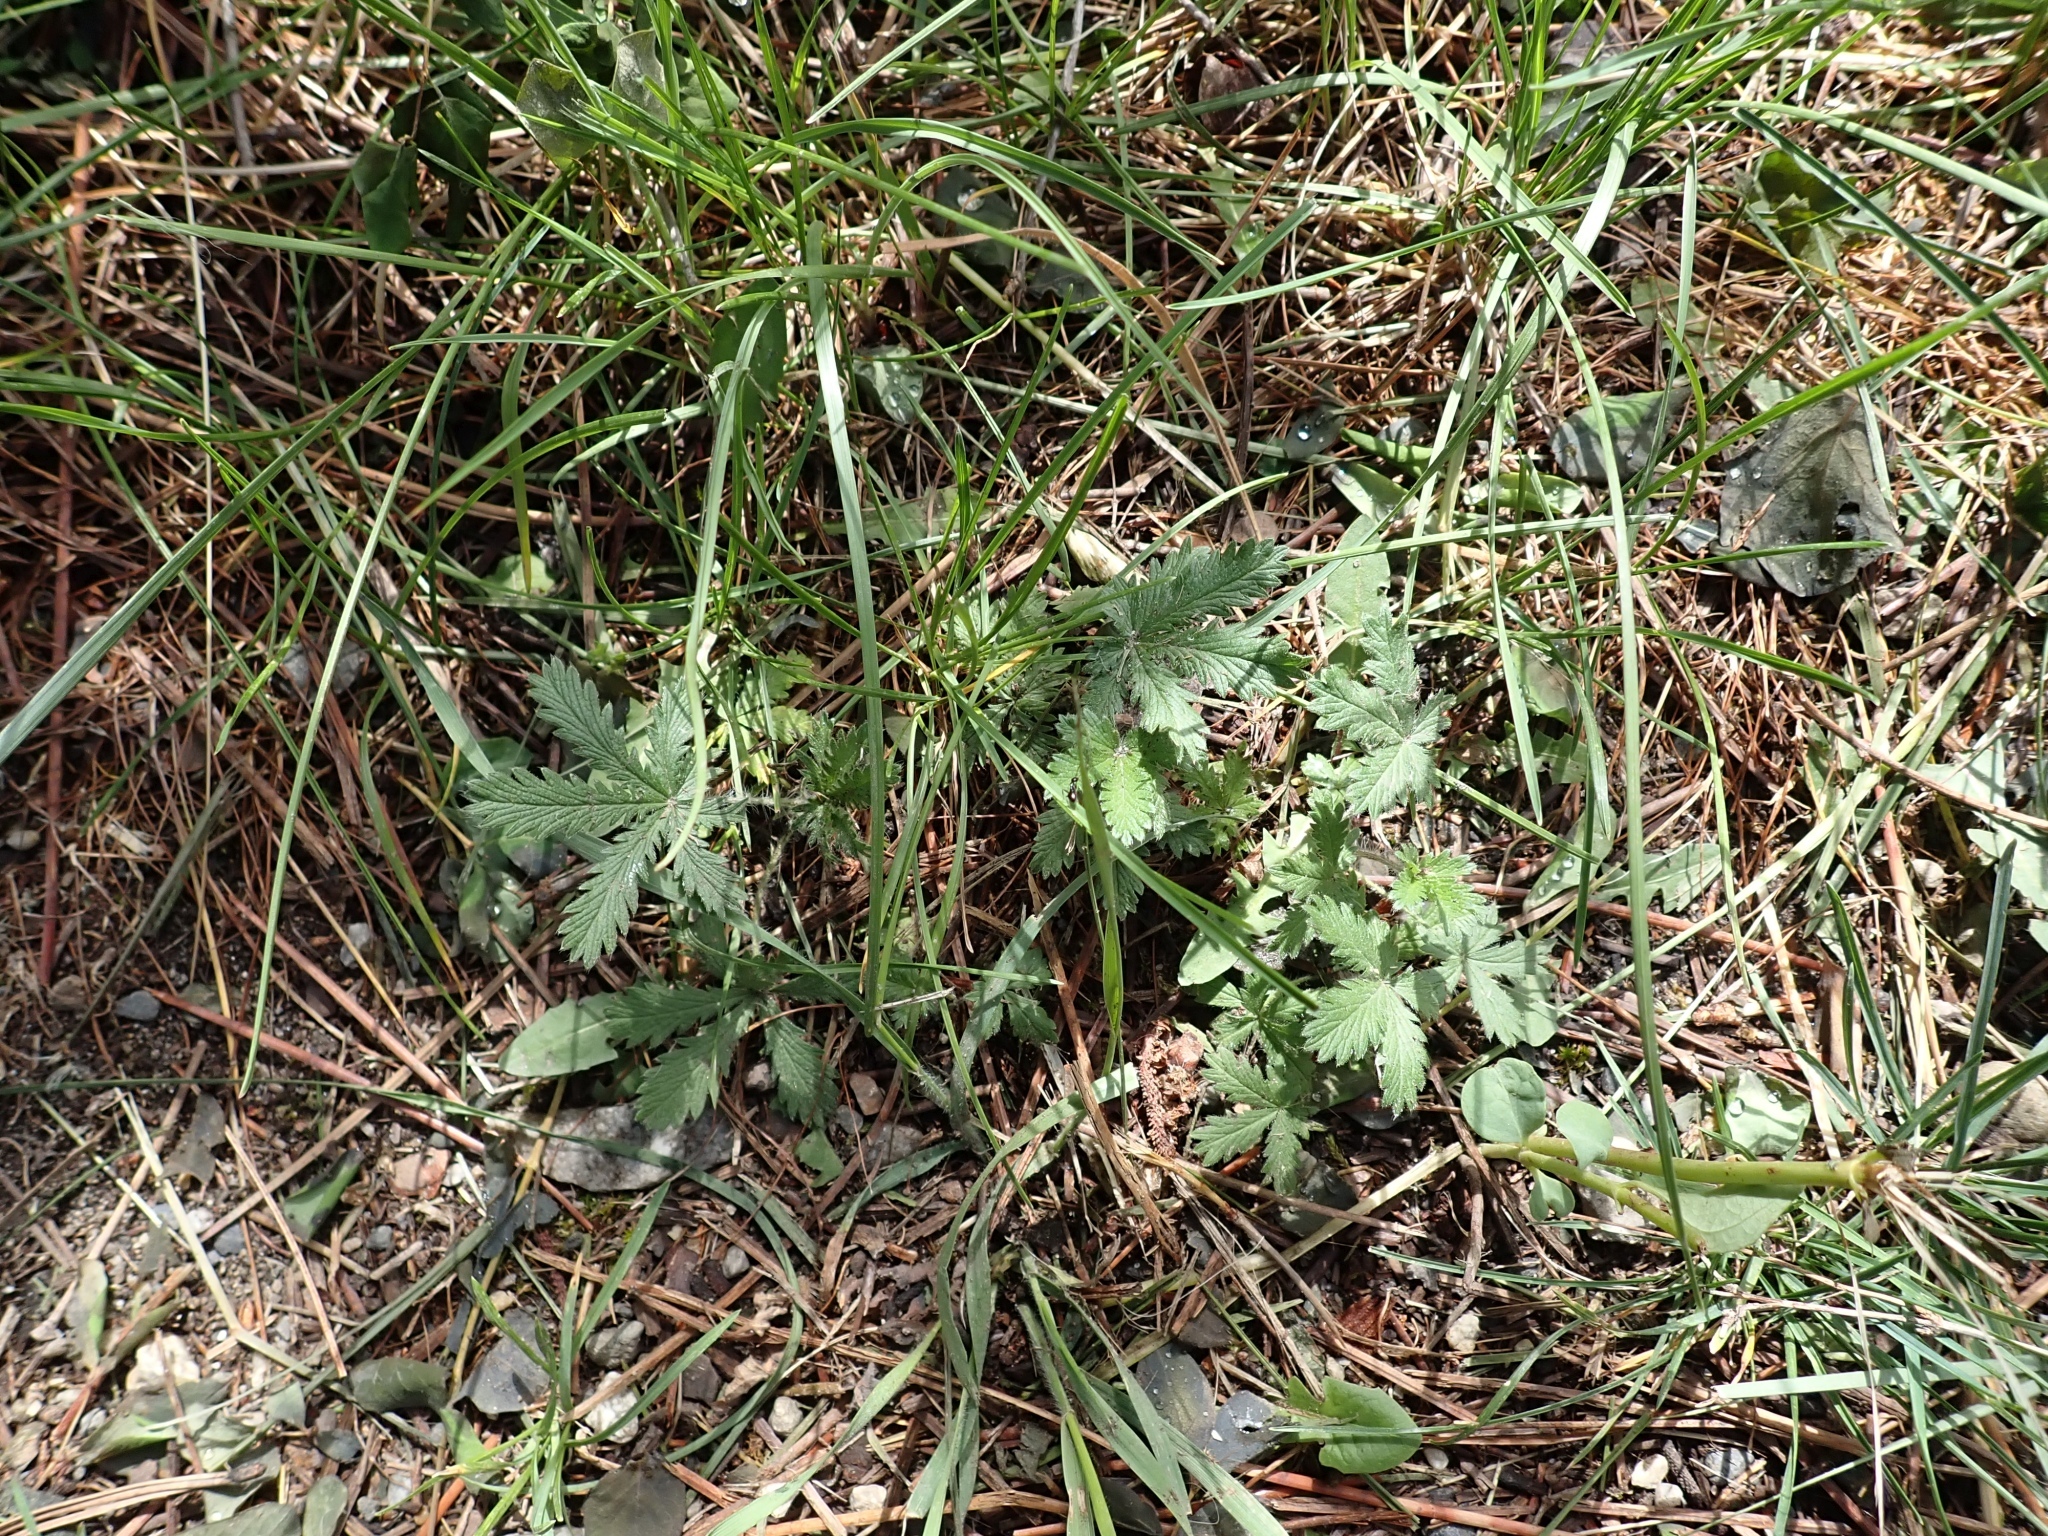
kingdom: Plantae
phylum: Tracheophyta
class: Magnoliopsida
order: Rosales
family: Rosaceae
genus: Potentilla
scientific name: Potentilla recta
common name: Sulphur cinquefoil
